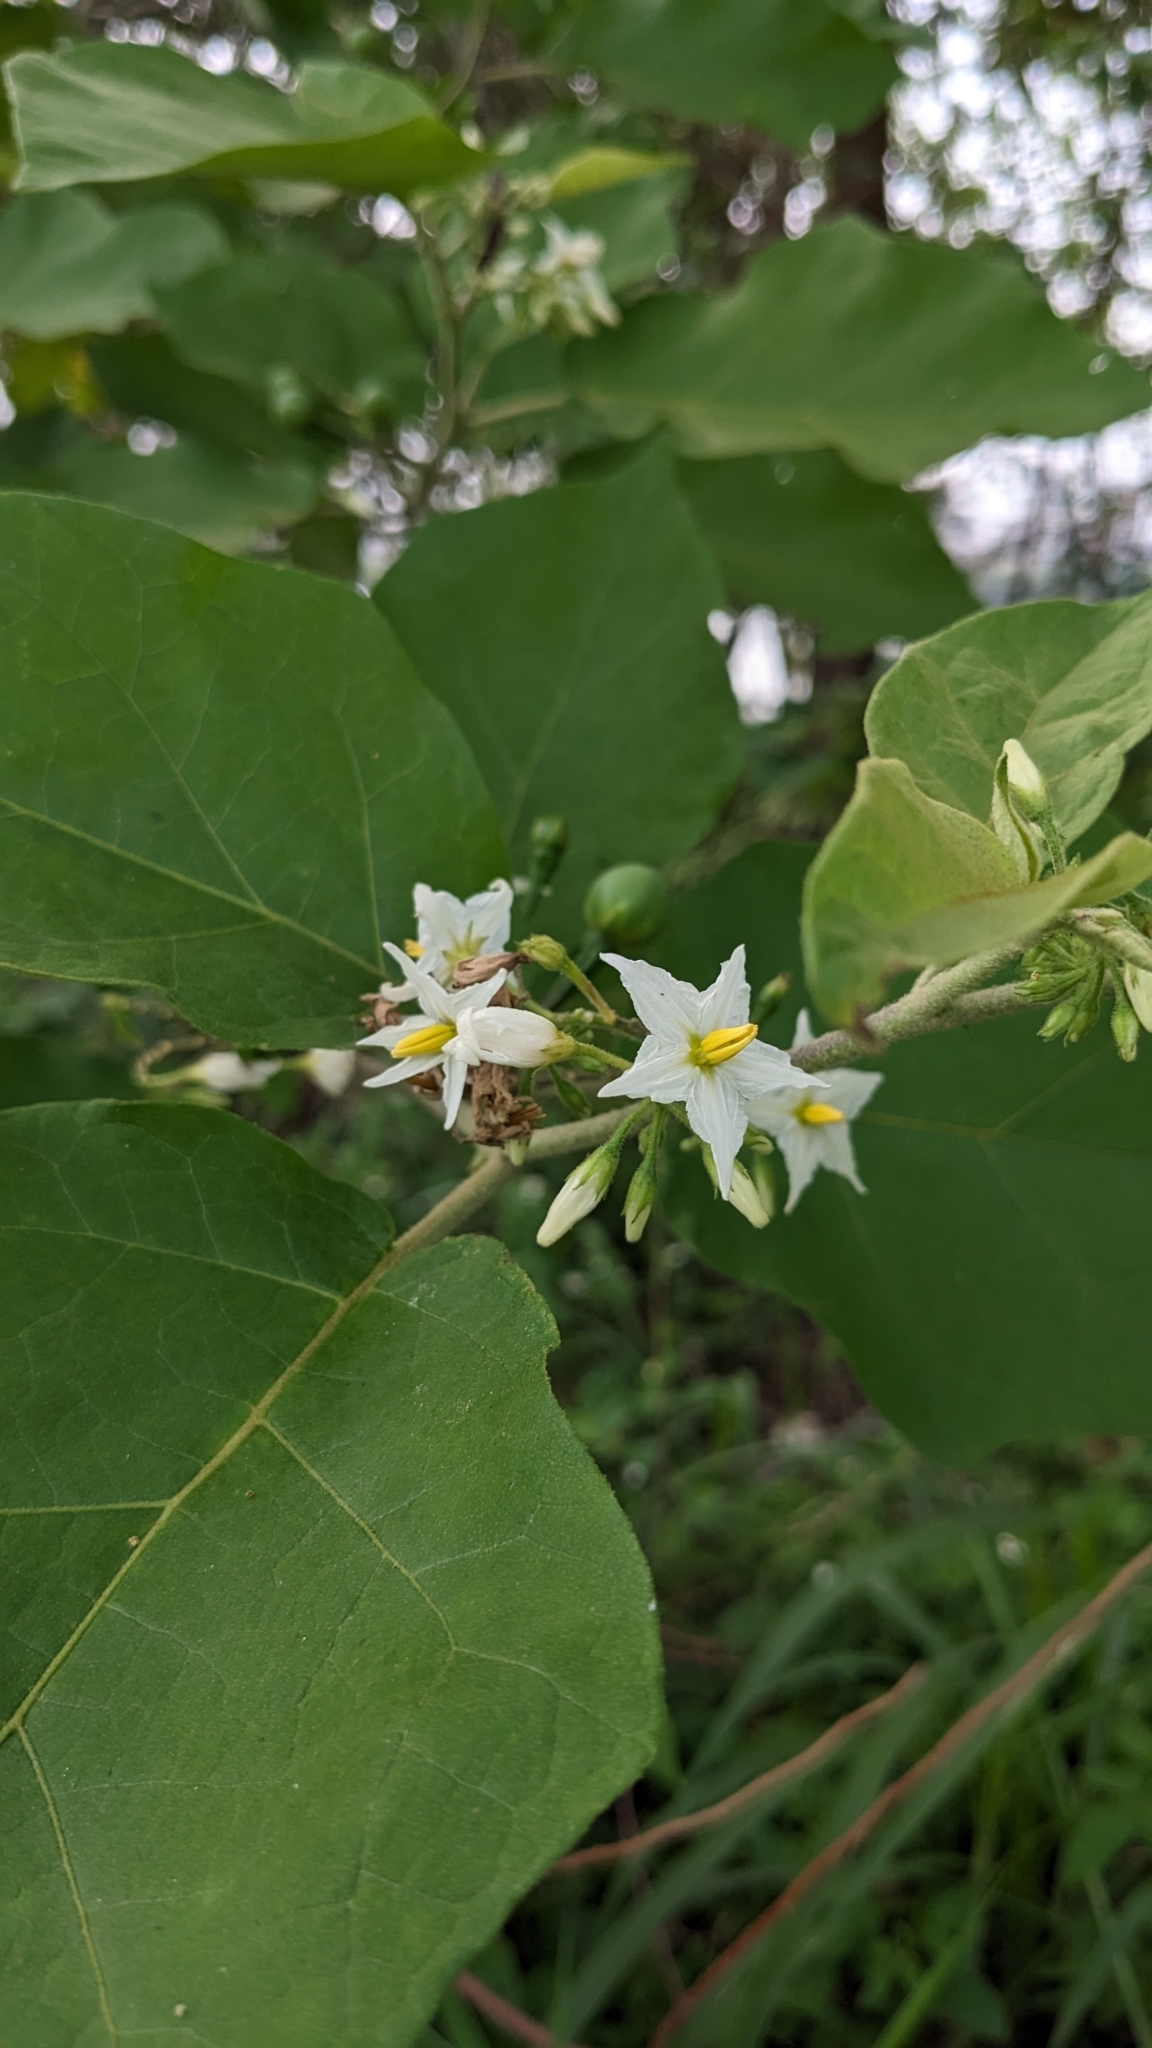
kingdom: Plantae
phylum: Tracheophyta
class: Magnoliopsida
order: Solanales
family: Solanaceae
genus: Solanum
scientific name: Solanum torvum
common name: Turkey berry
